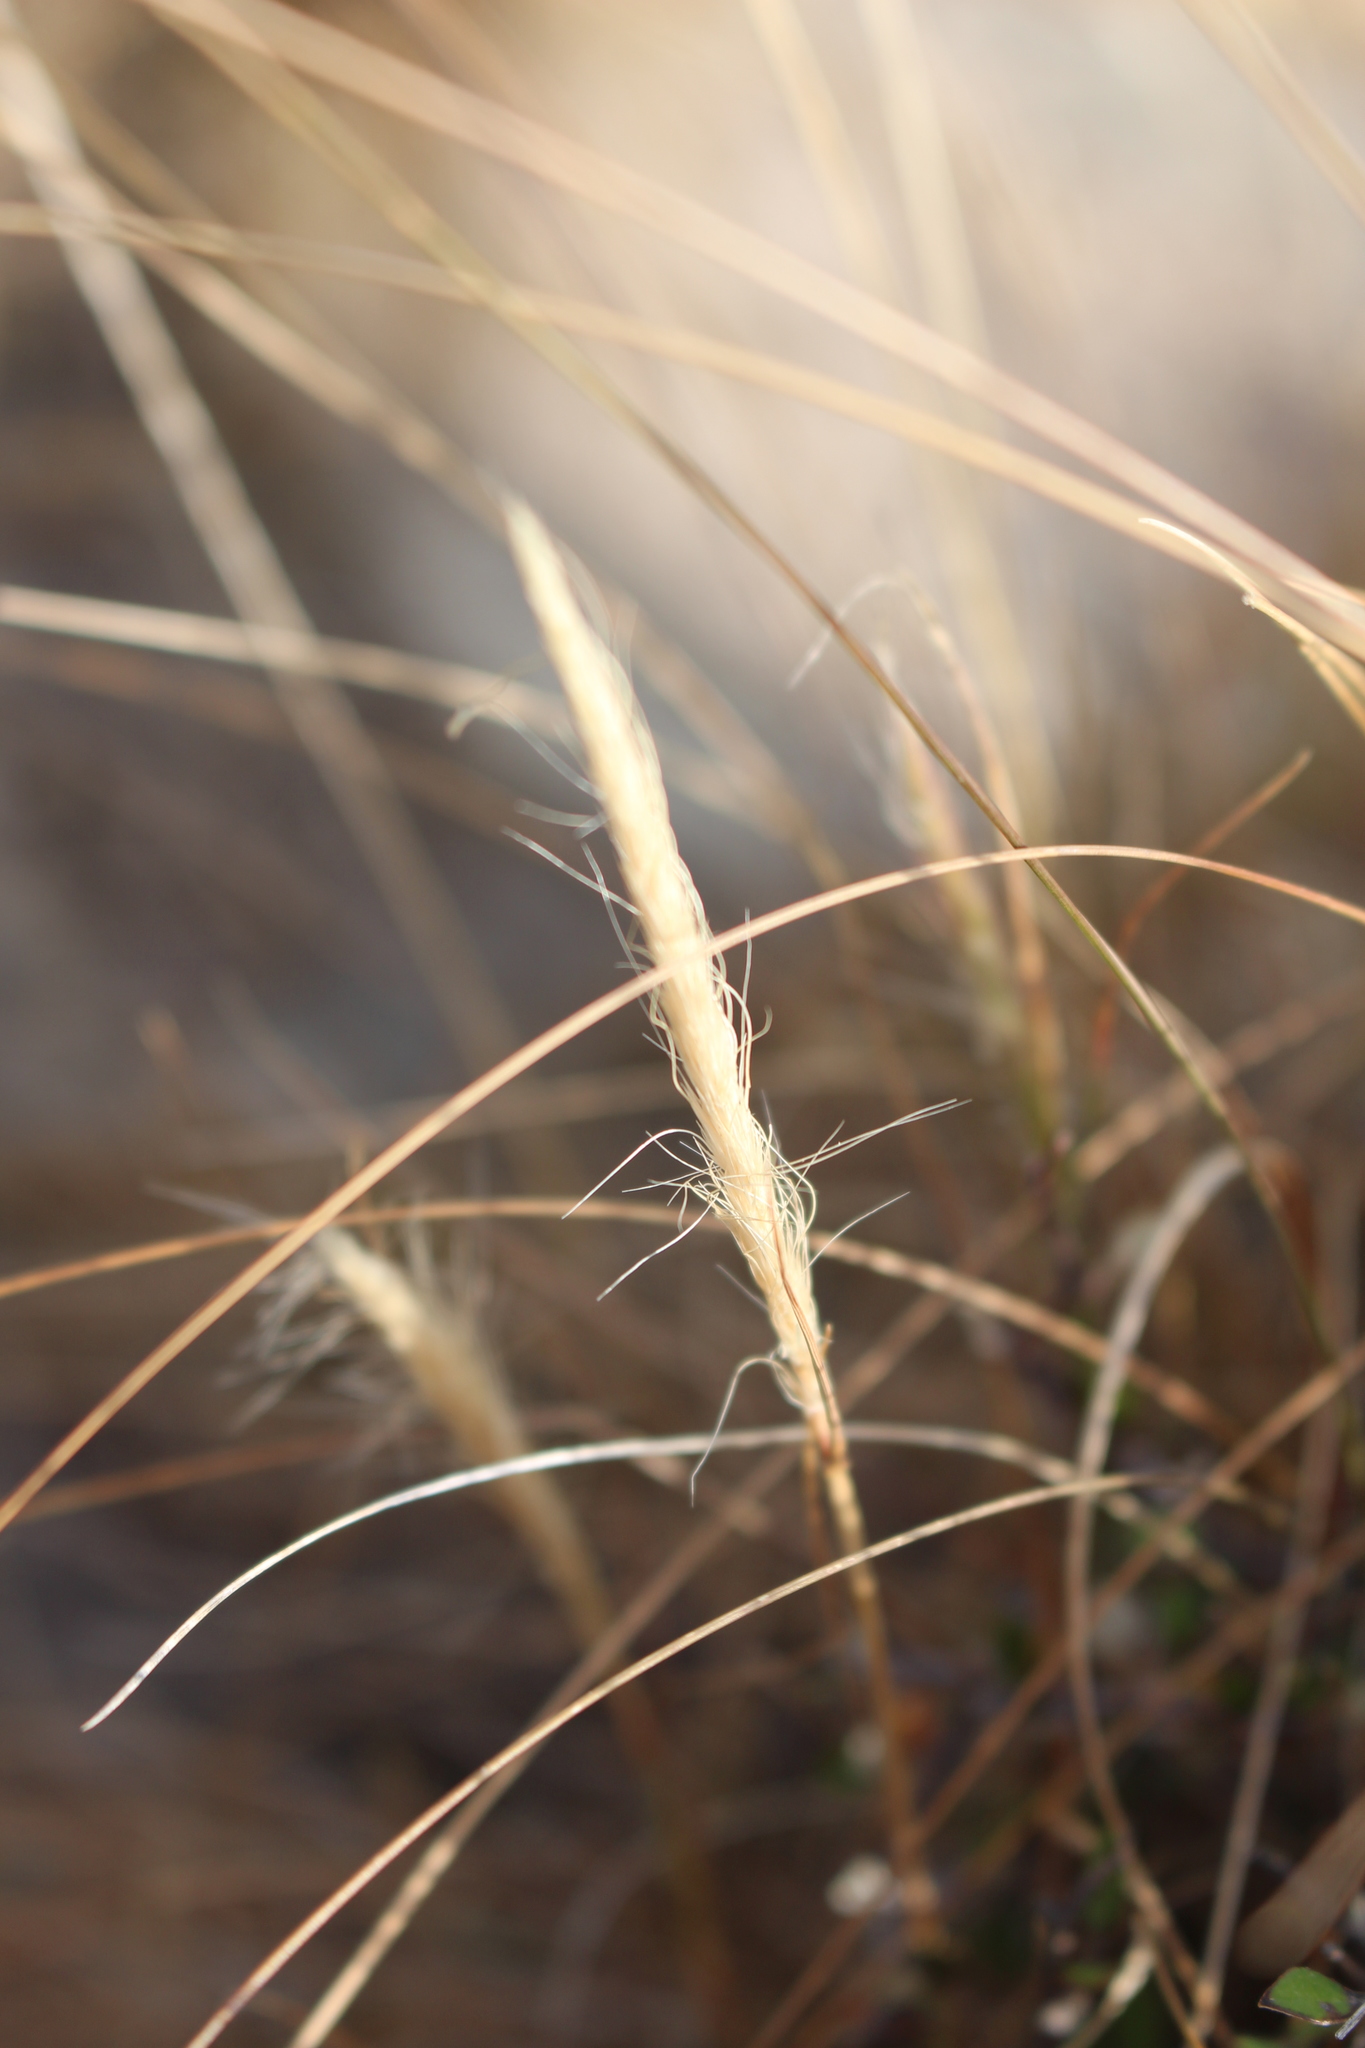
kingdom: Plantae
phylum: Tracheophyta
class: Liliopsida
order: Poales
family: Poaceae
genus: Dichelachne
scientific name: Dichelachne crinita
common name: Clovenfoot plumegrass
